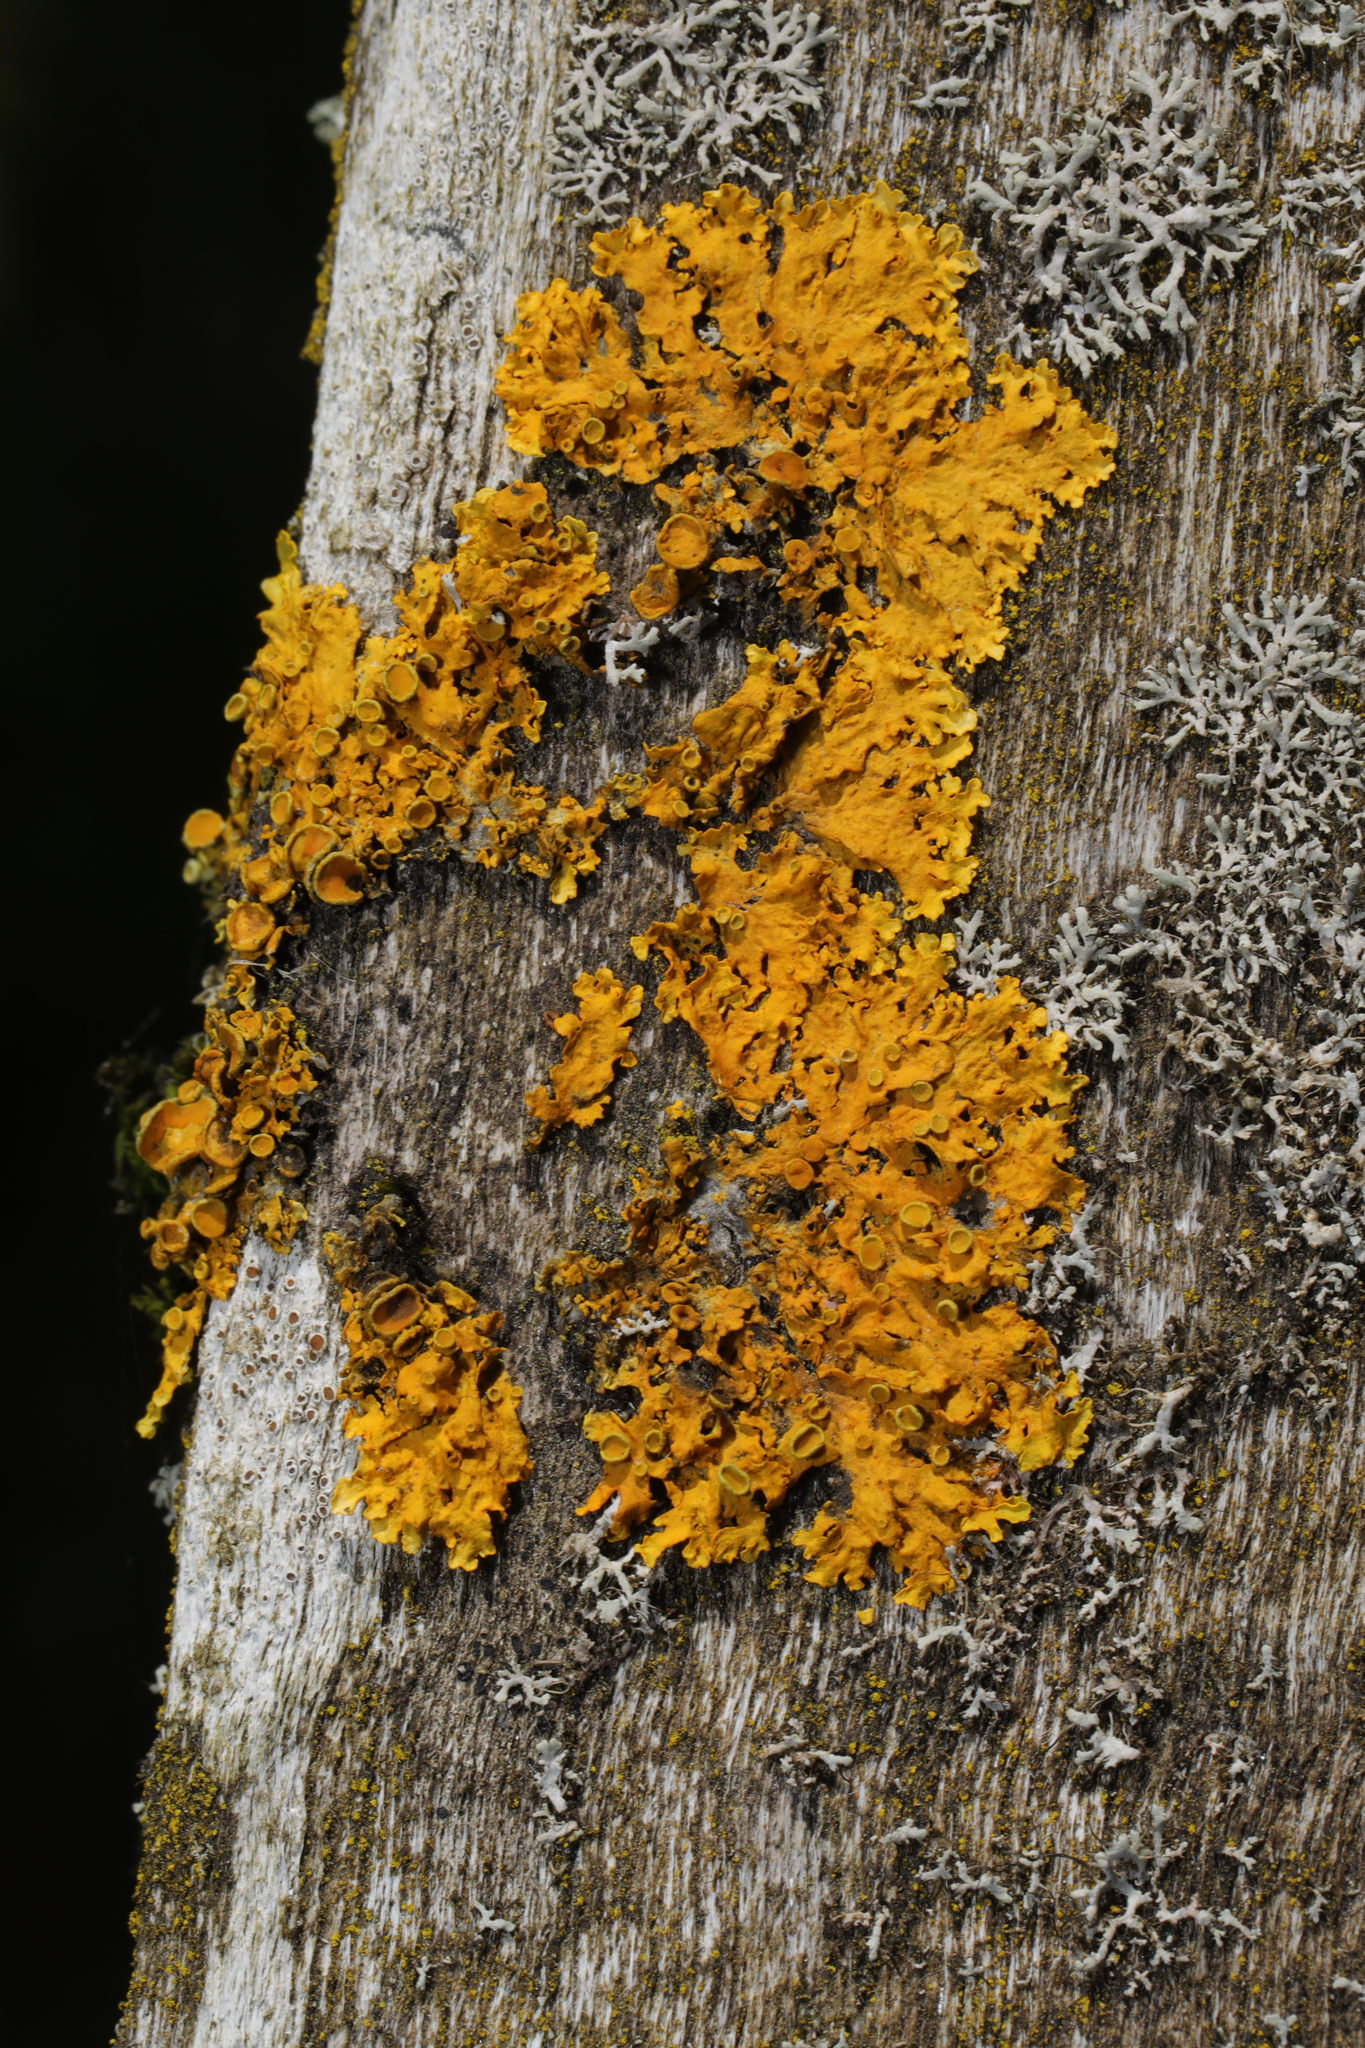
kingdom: Fungi
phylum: Ascomycota
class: Lecanoromycetes
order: Teloschistales
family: Teloschistaceae
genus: Xanthoria
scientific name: Xanthoria parietina
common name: Common orange lichen
